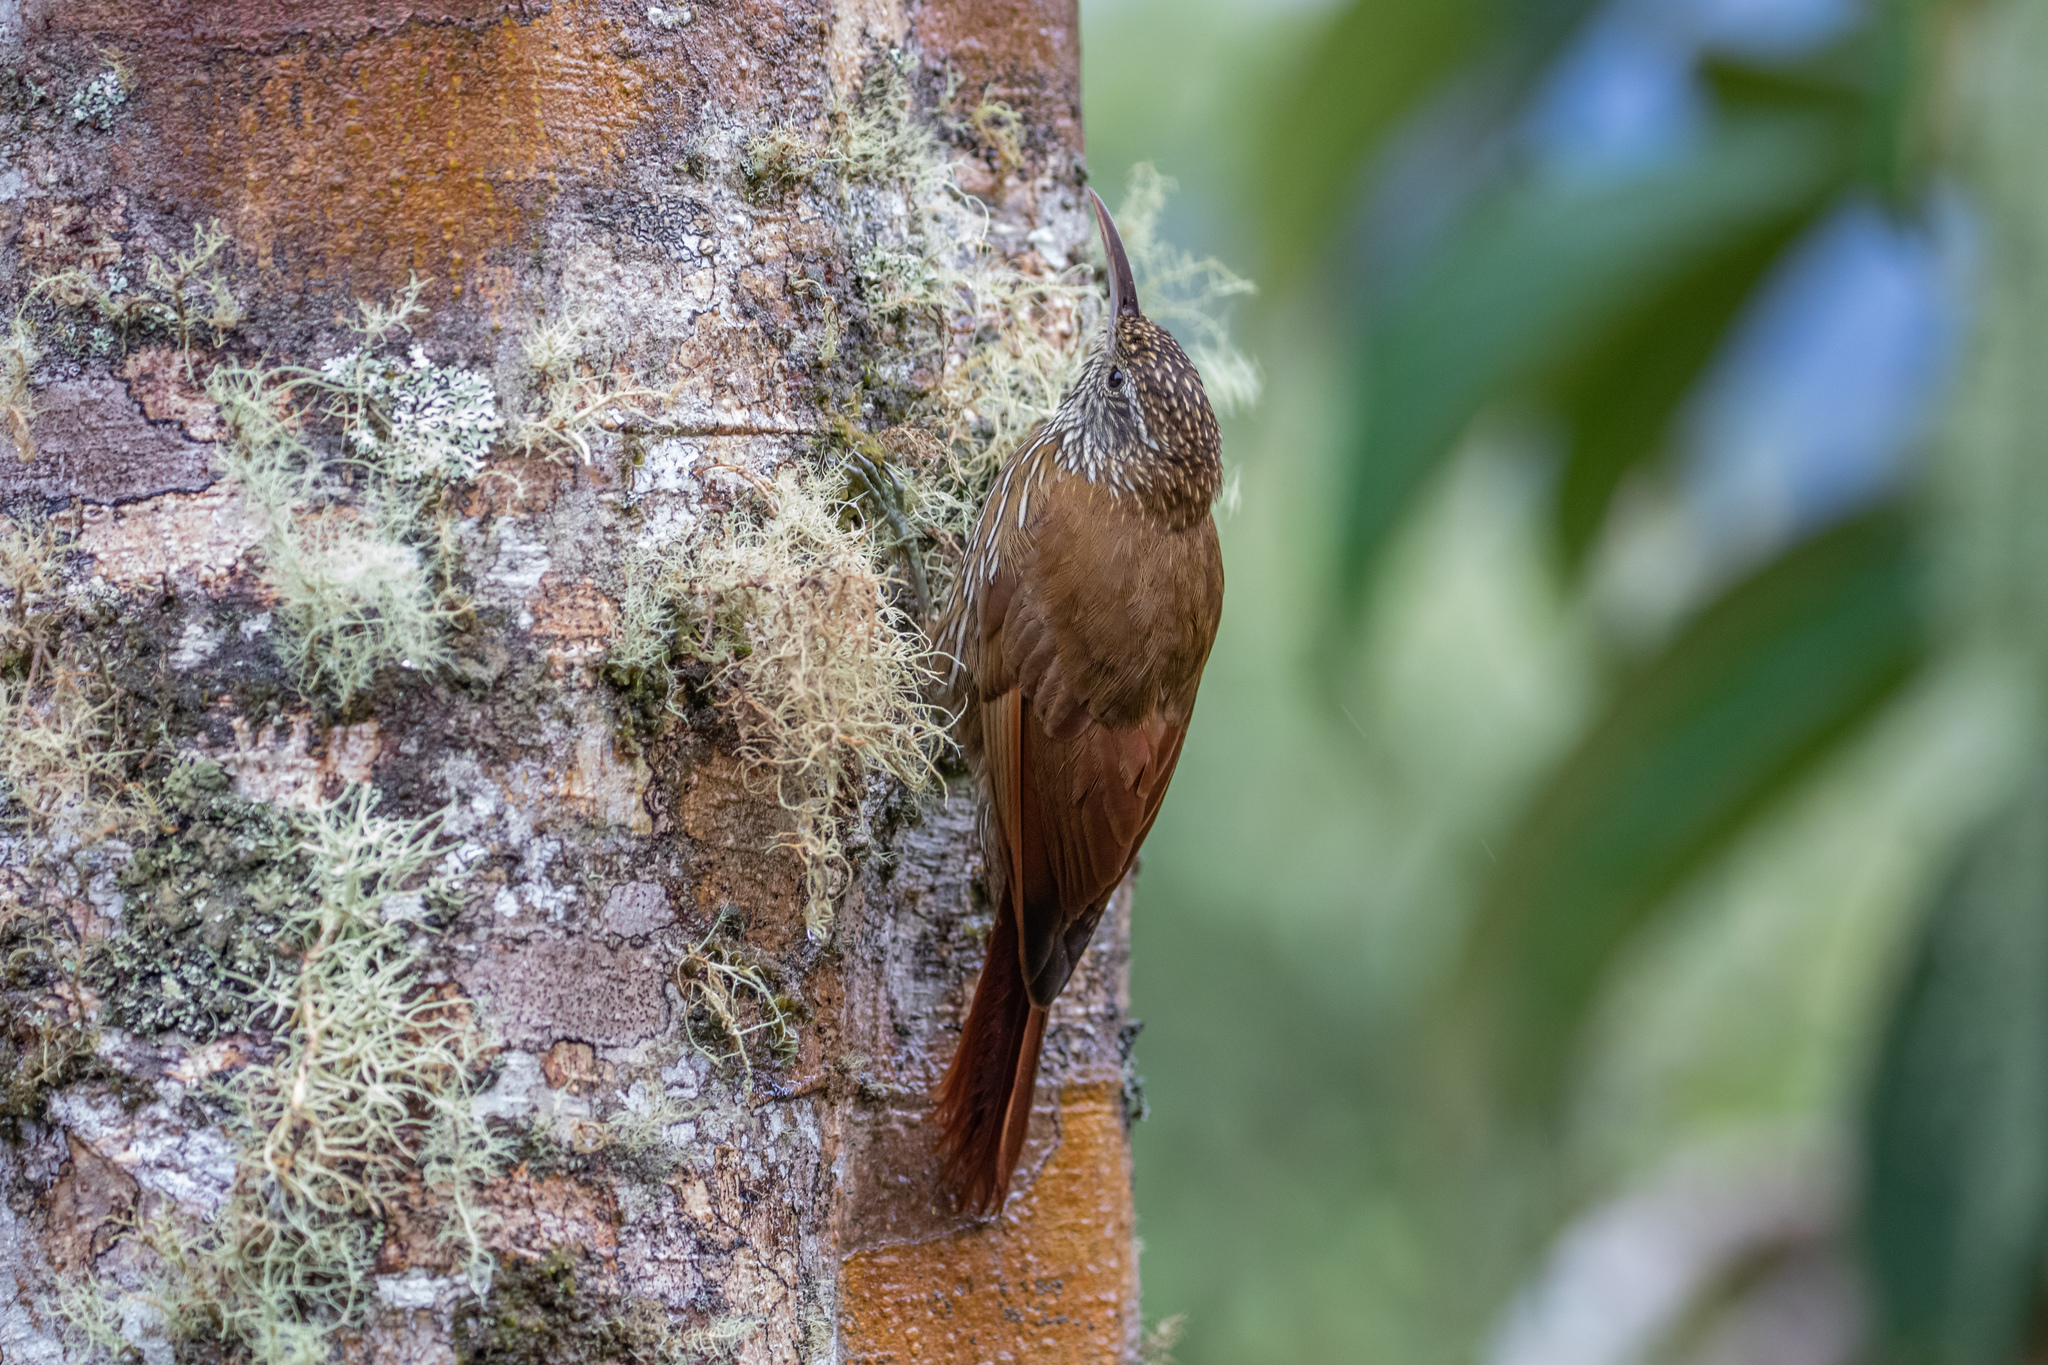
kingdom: Animalia
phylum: Chordata
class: Aves
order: Passeriformes
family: Furnariidae
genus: Lepidocolaptes
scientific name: Lepidocolaptes lacrymiger
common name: Montane woodcreeper
